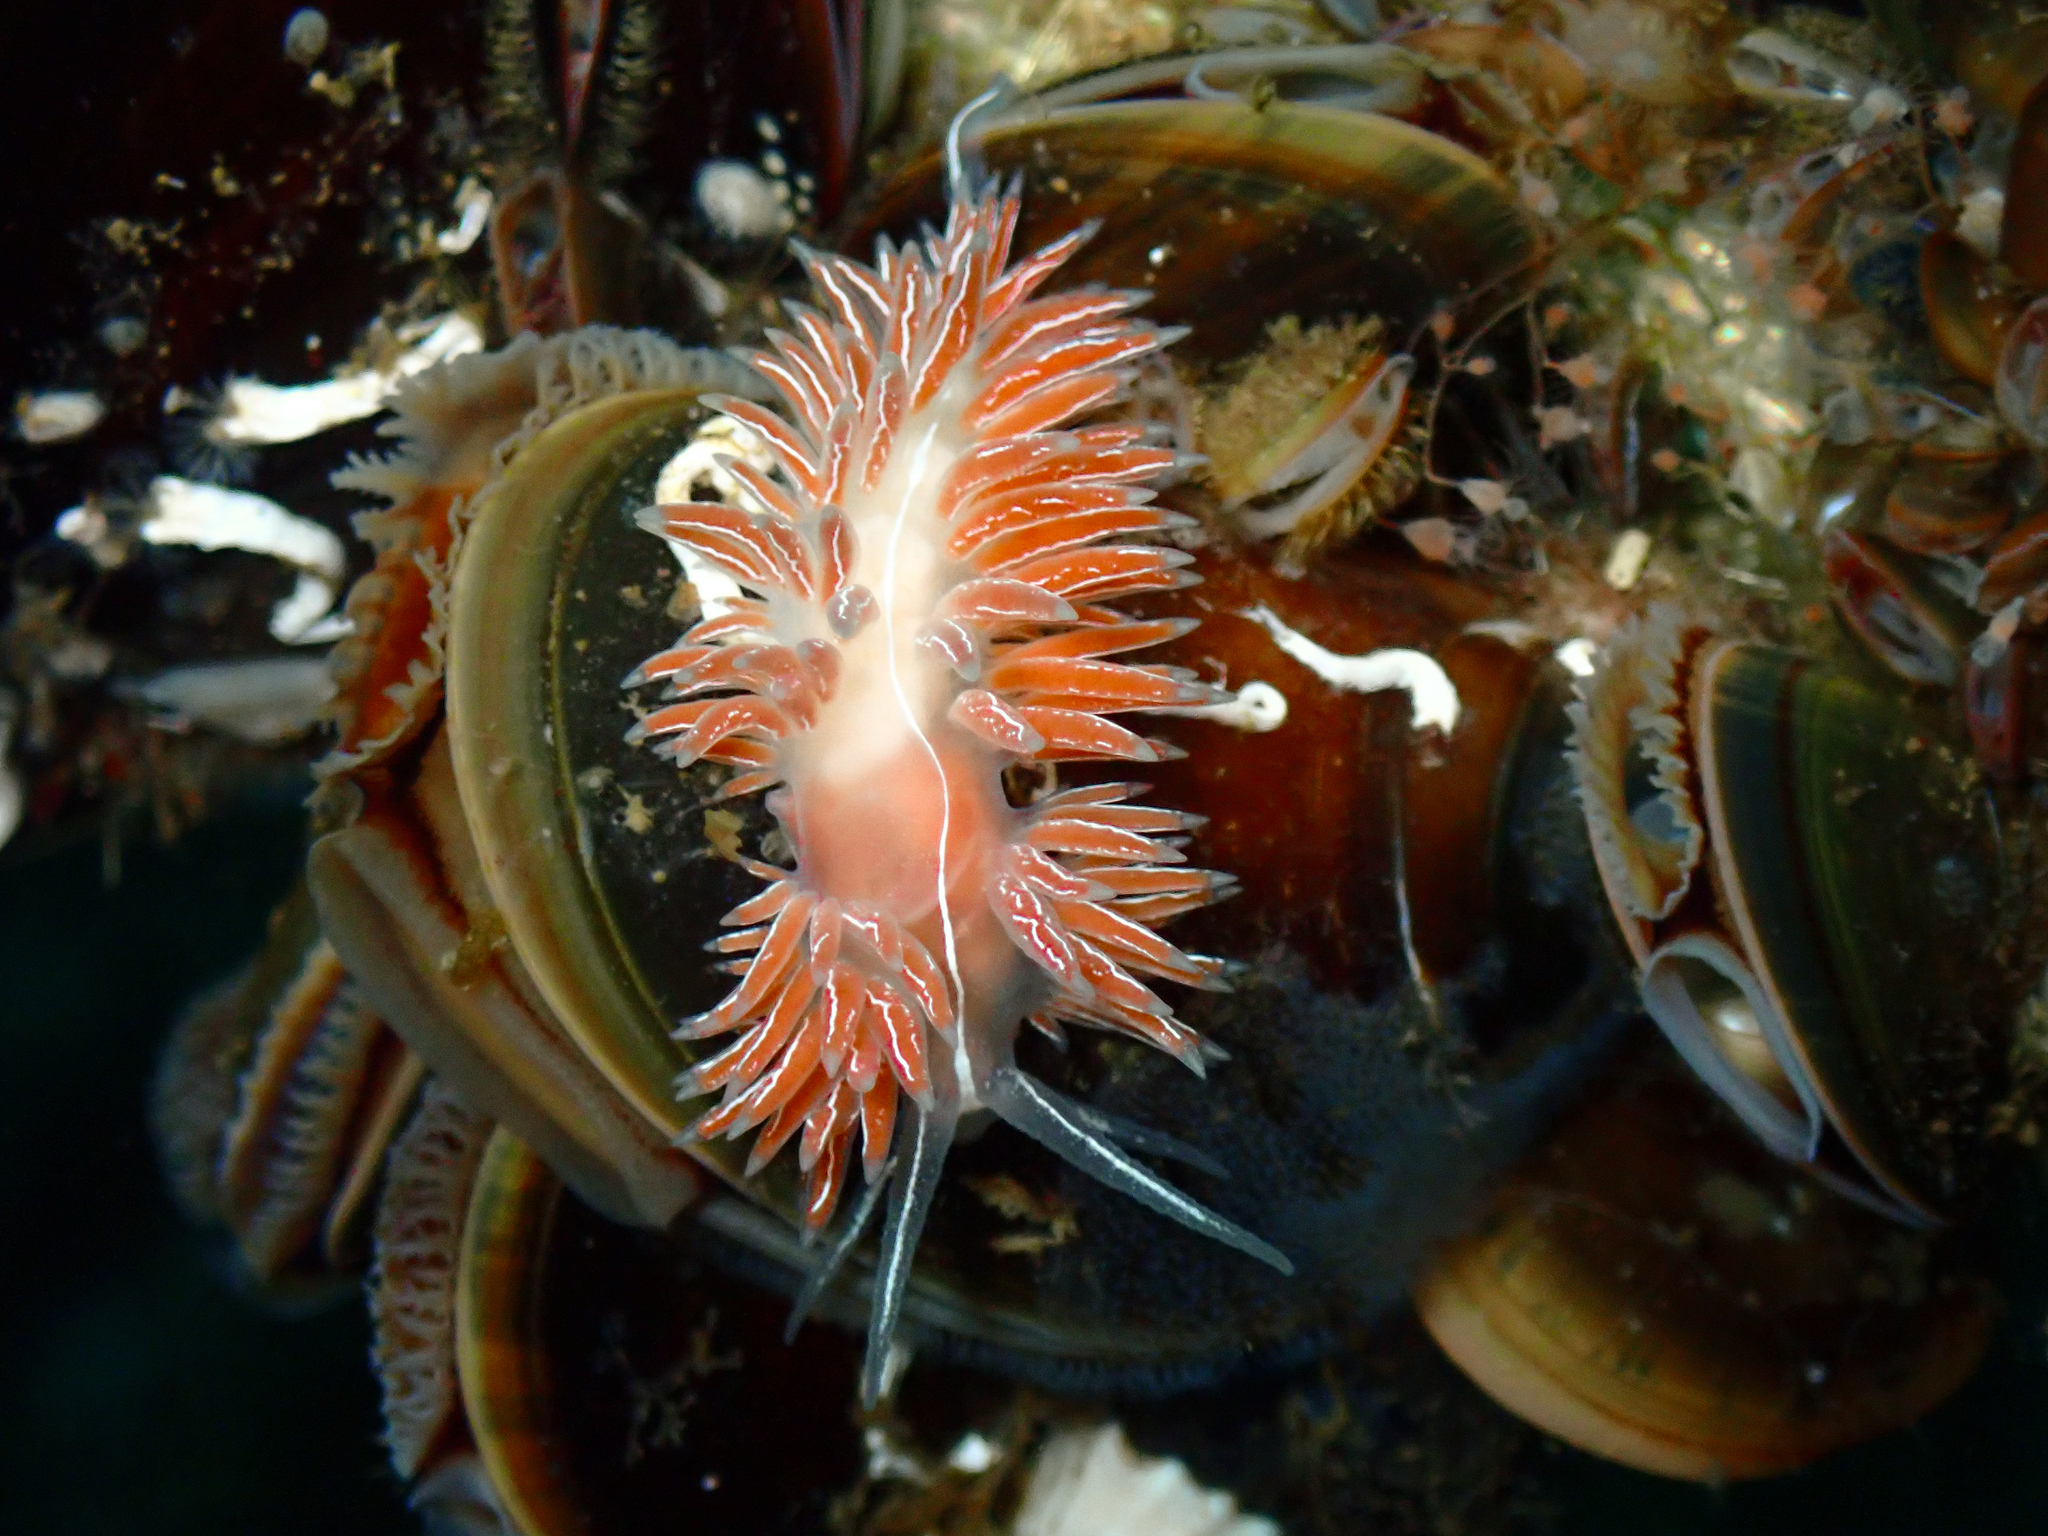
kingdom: Animalia
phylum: Mollusca
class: Gastropoda
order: Nudibranchia
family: Coryphellidae
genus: Coryphella
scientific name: Coryphella chriskaugei
